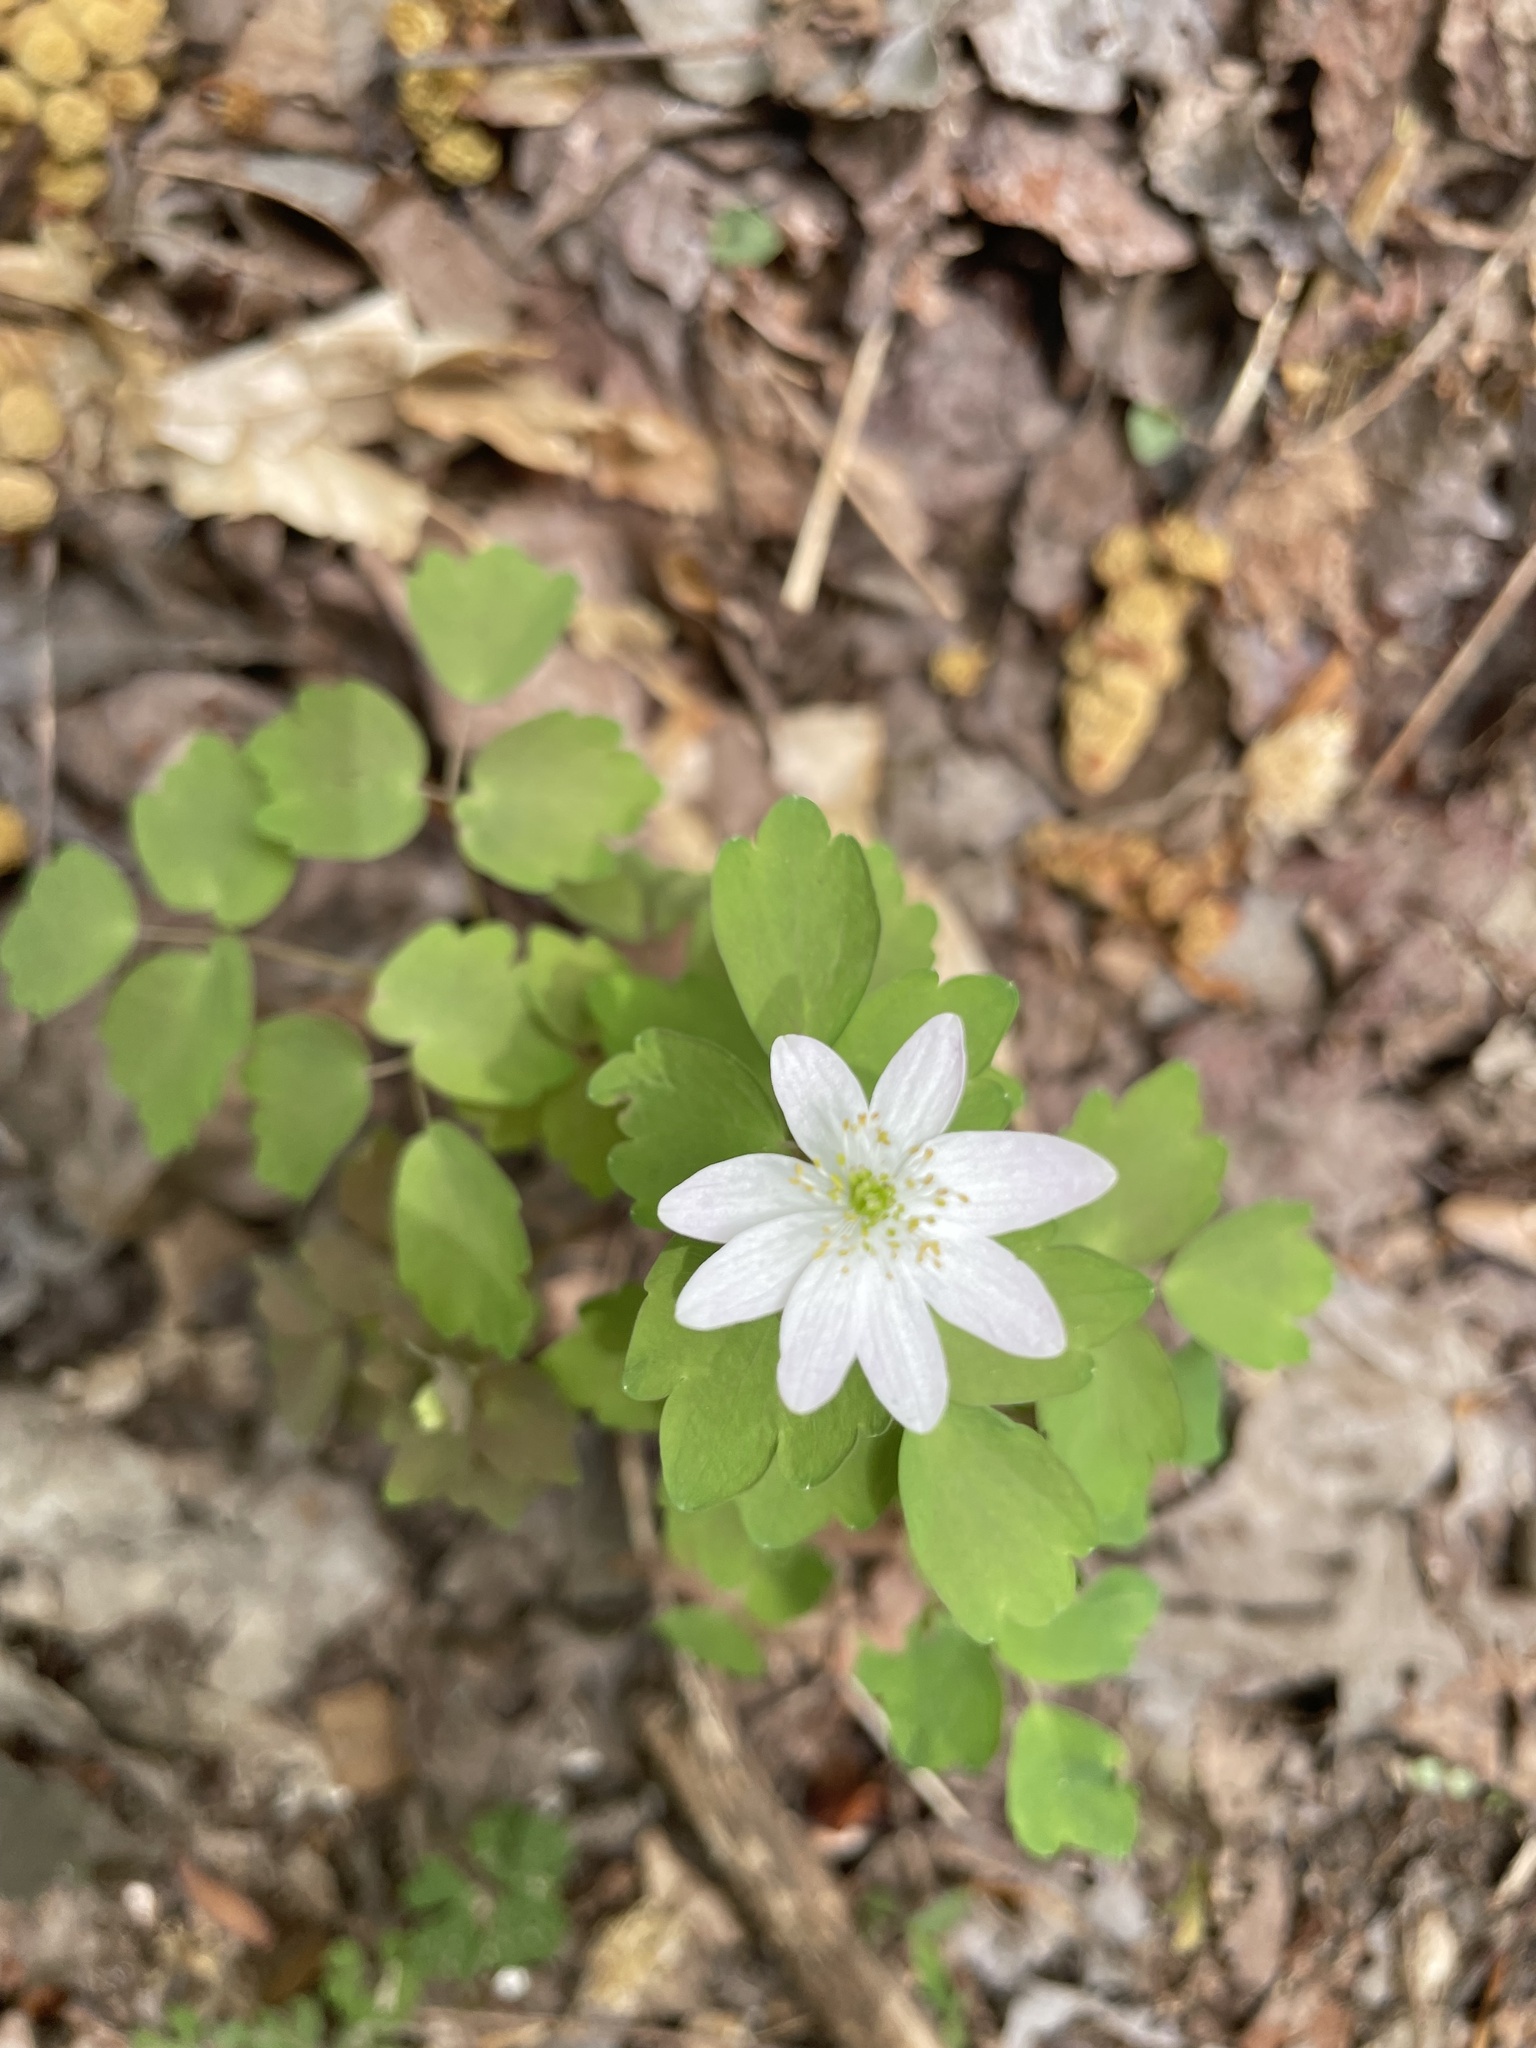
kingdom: Plantae
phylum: Tracheophyta
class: Magnoliopsida
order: Ranunculales
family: Ranunculaceae
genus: Thalictrum
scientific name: Thalictrum thalictroides
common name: Rue-anemone
